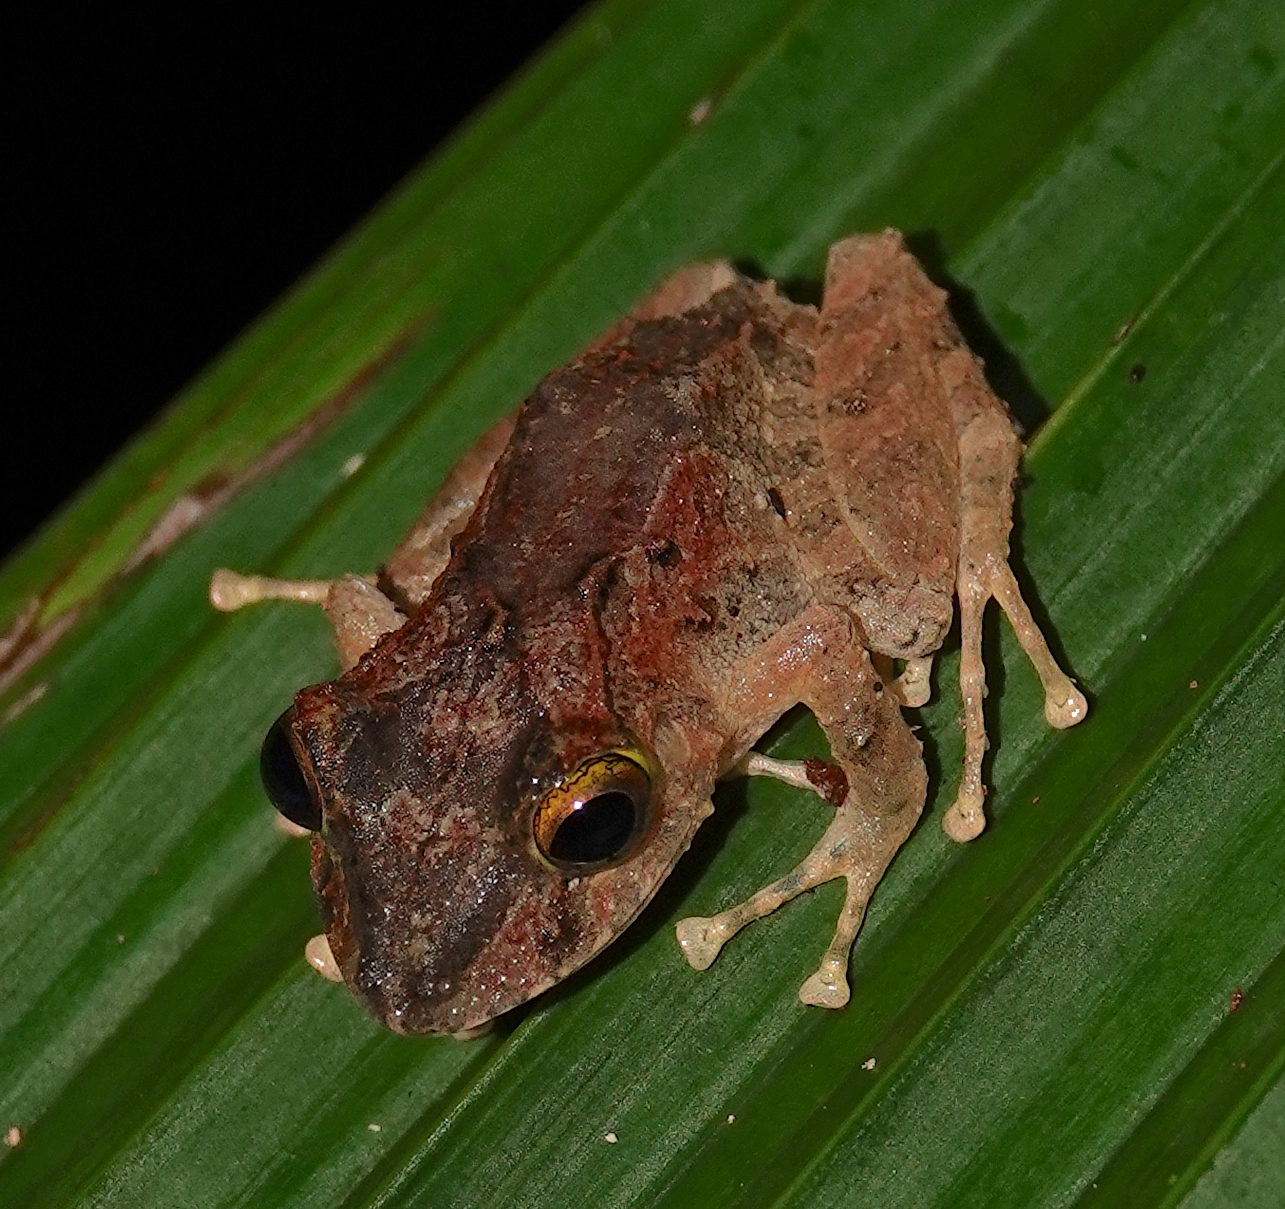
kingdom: Animalia
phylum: Chordata
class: Amphibia
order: Anura
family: Craugastoridae
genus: Craugastor
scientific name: Craugastor fitzingeri
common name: Fitzinger's robber frog
